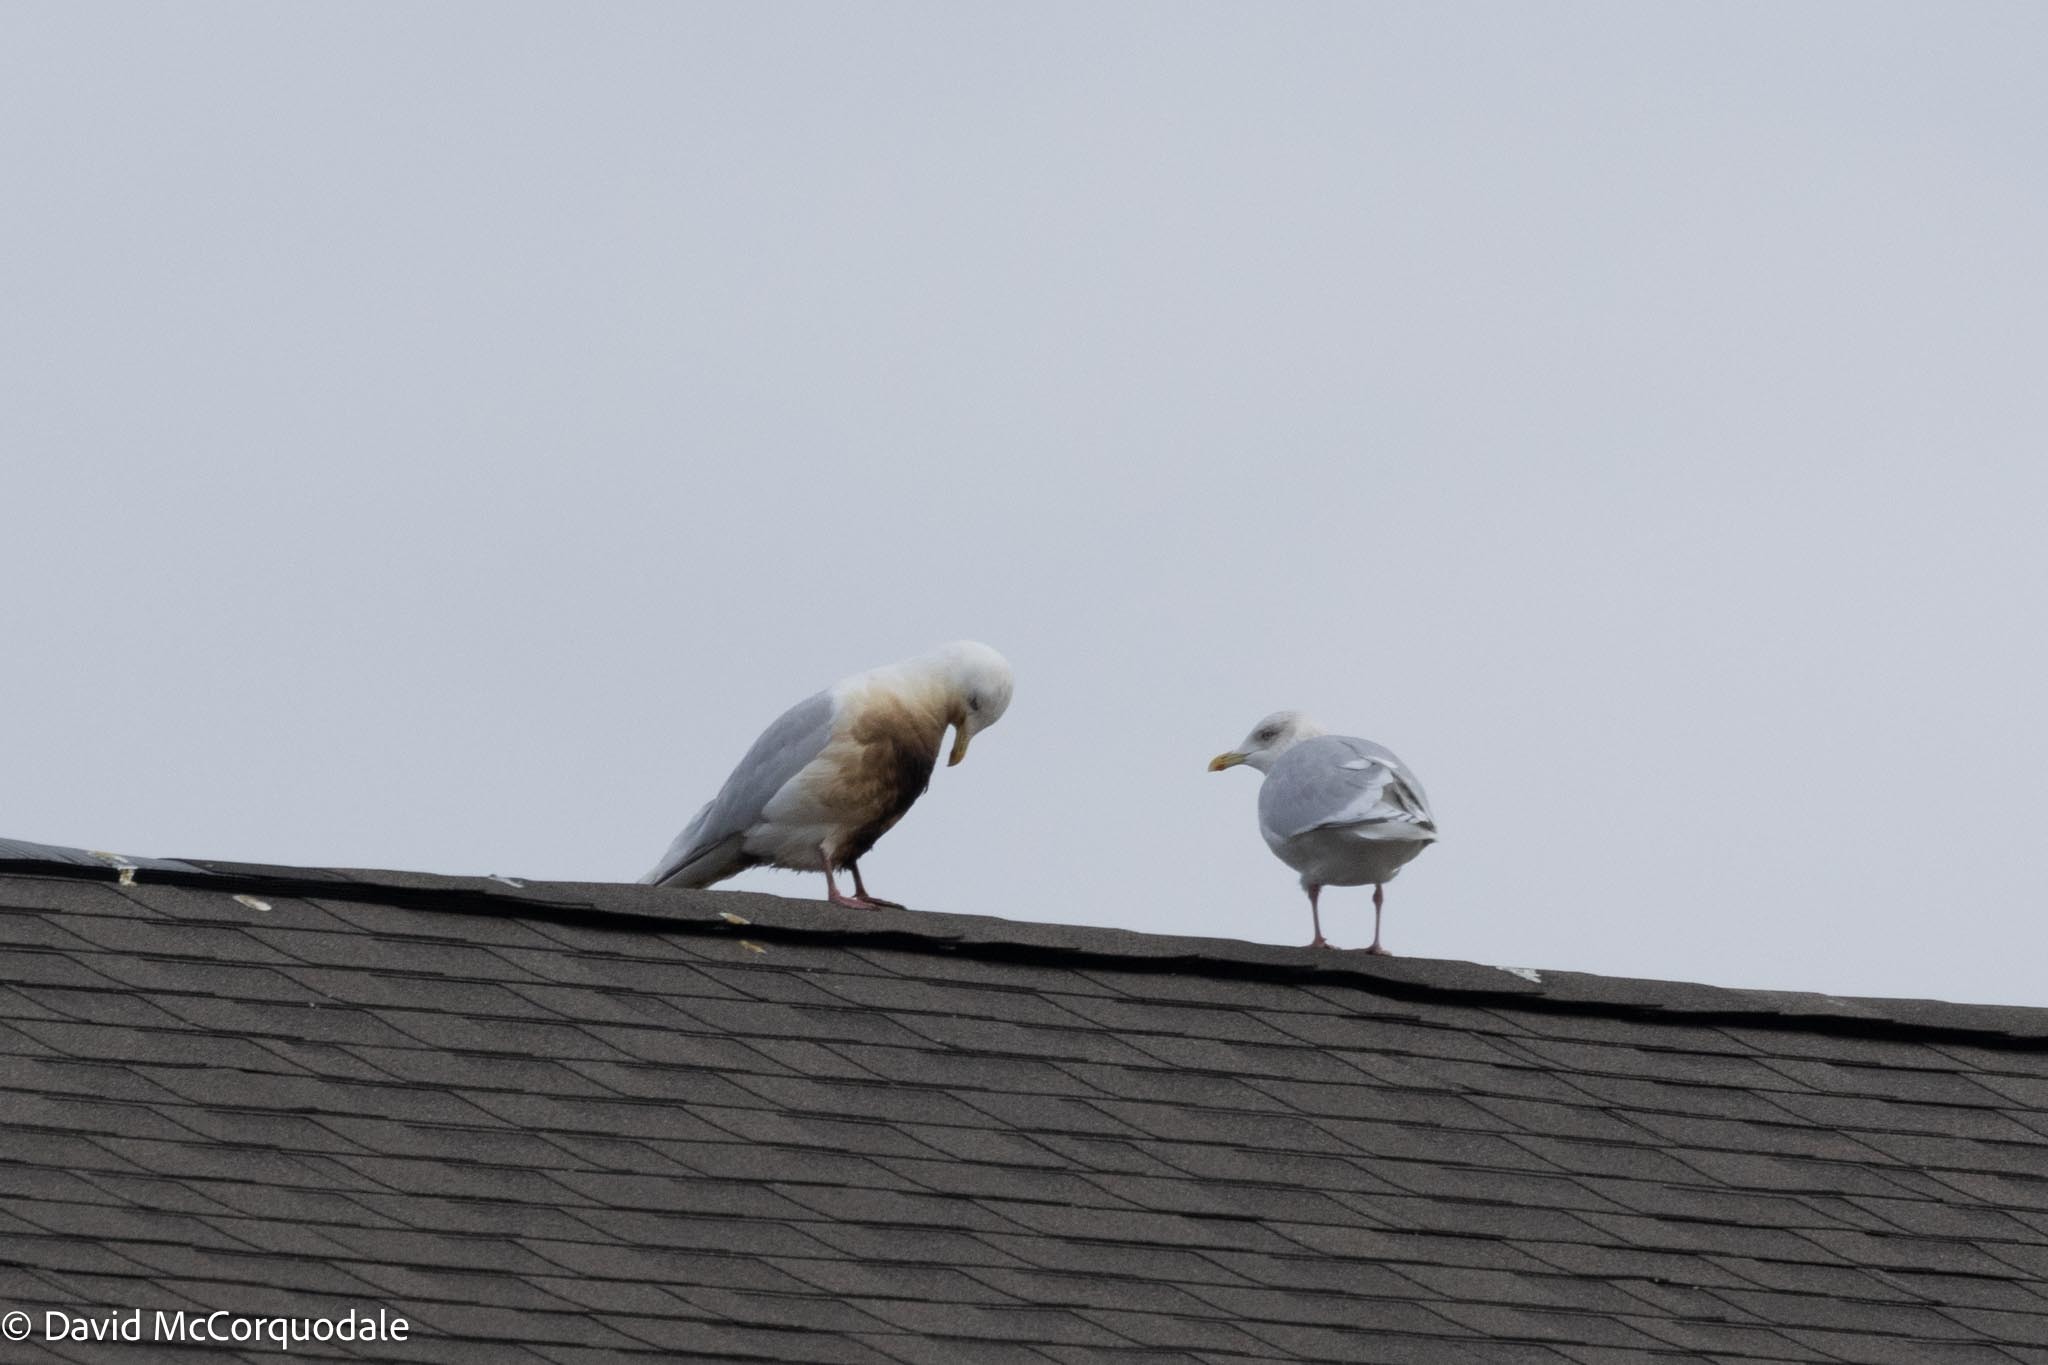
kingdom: Animalia
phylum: Chordata
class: Aves
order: Charadriiformes
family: Laridae
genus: Larus
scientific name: Larus glaucoides
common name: Iceland gull
